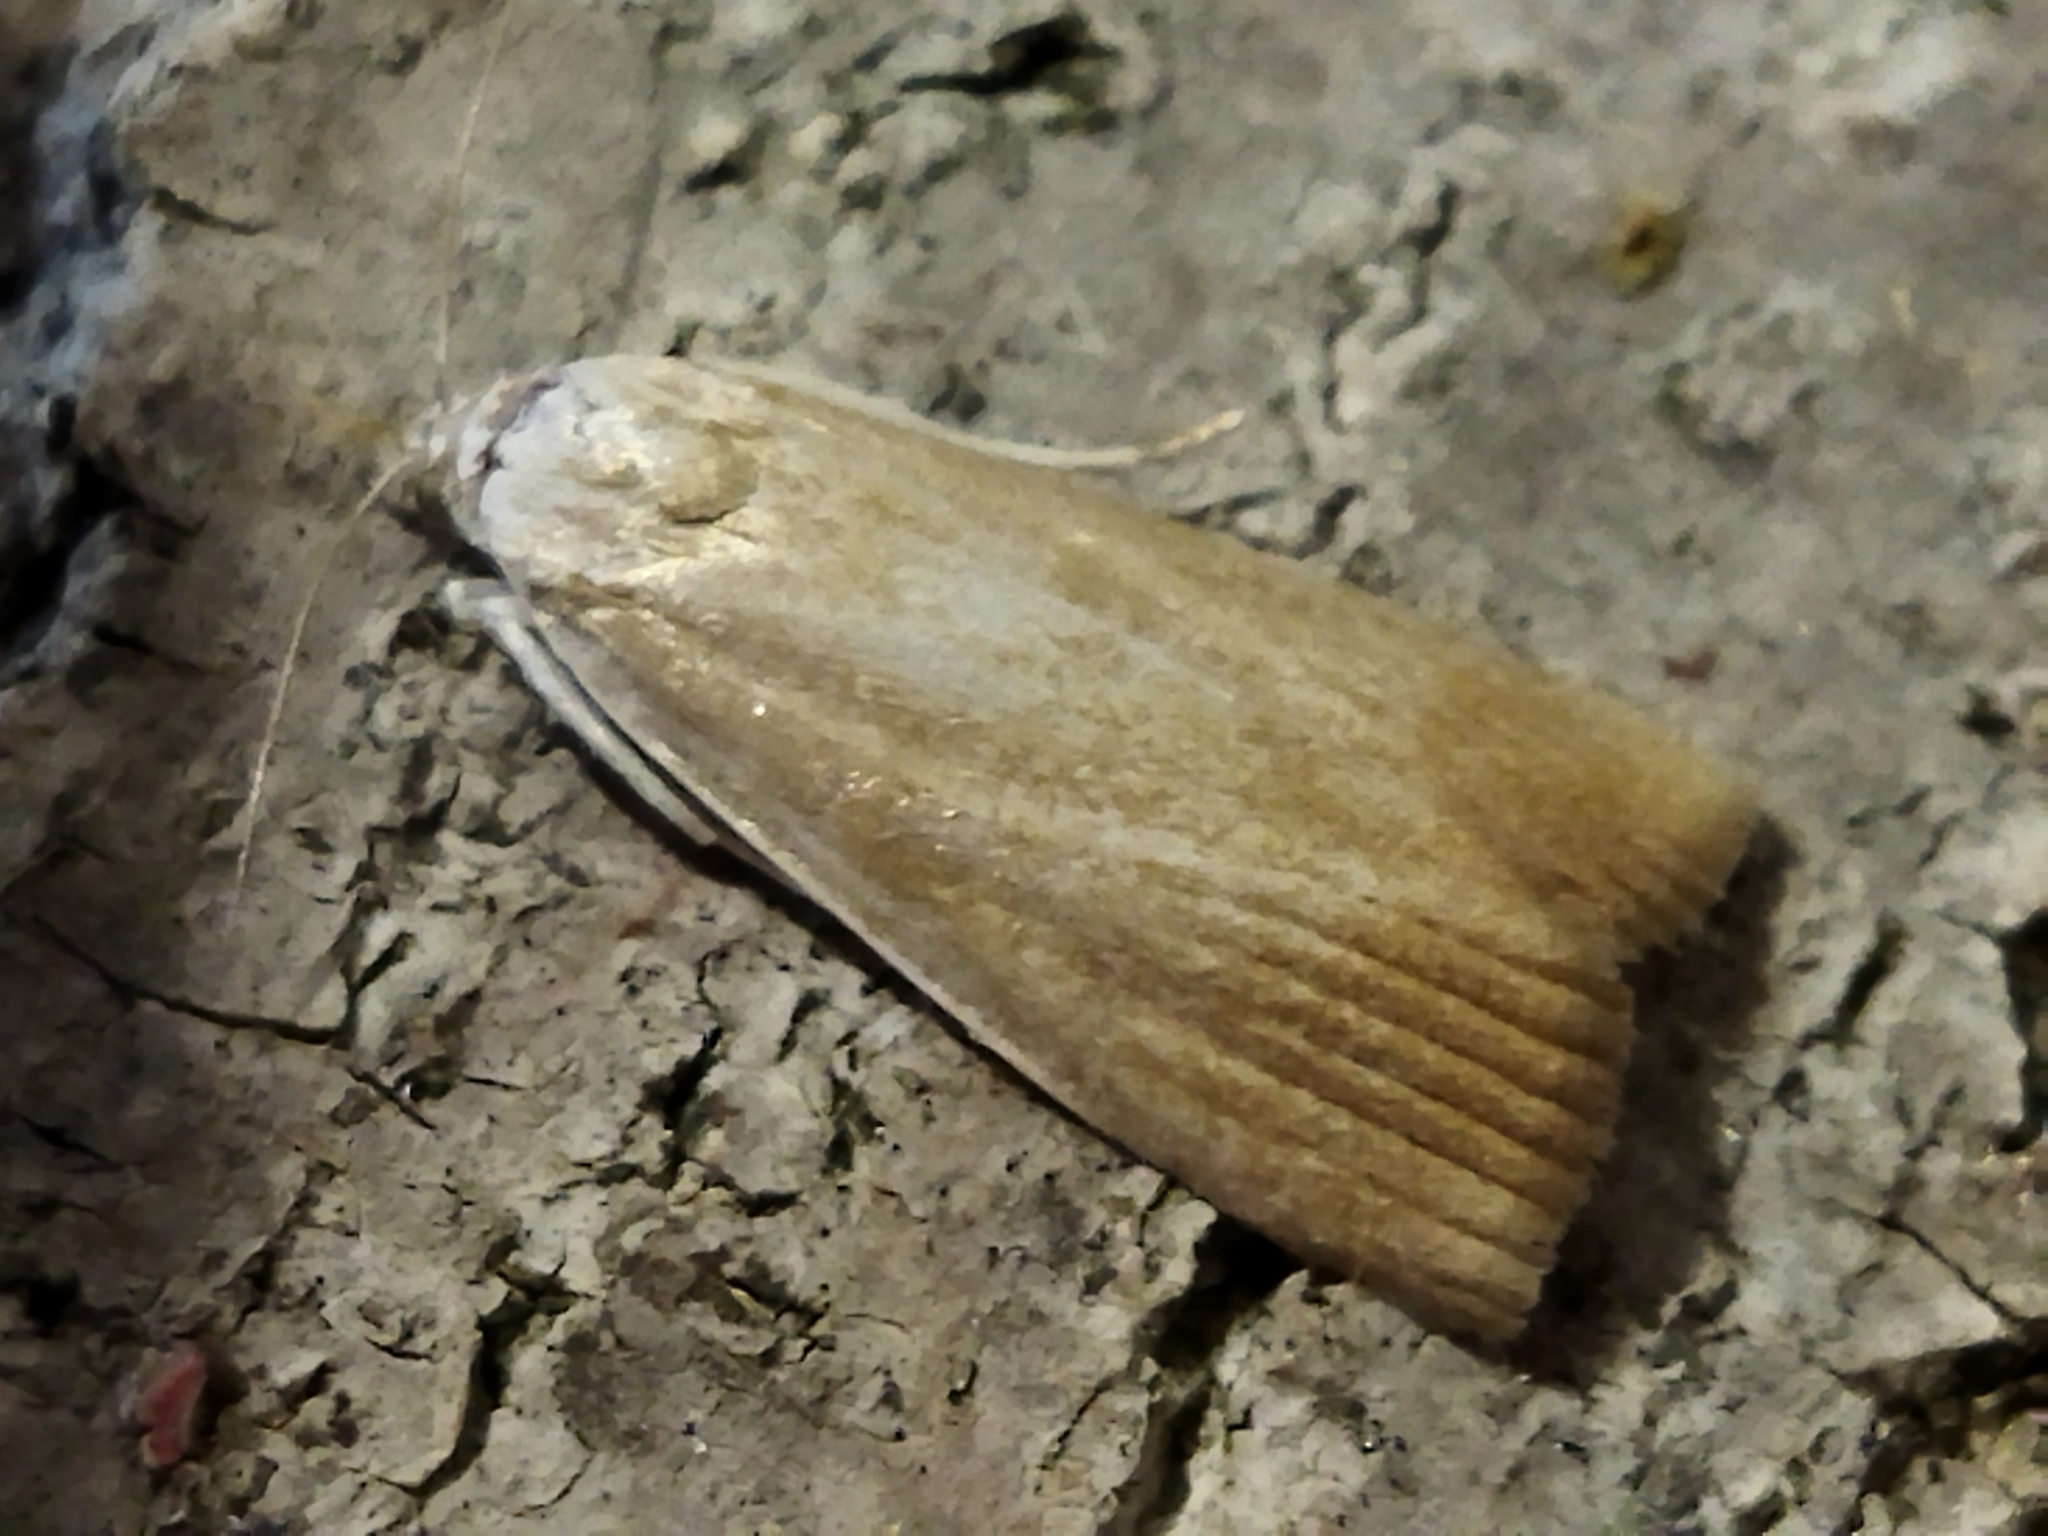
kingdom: Animalia
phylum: Arthropoda
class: Insecta
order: Lepidoptera
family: Crambidae
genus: Calamotropha
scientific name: Calamotropha paludella
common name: Bulrush veneer
